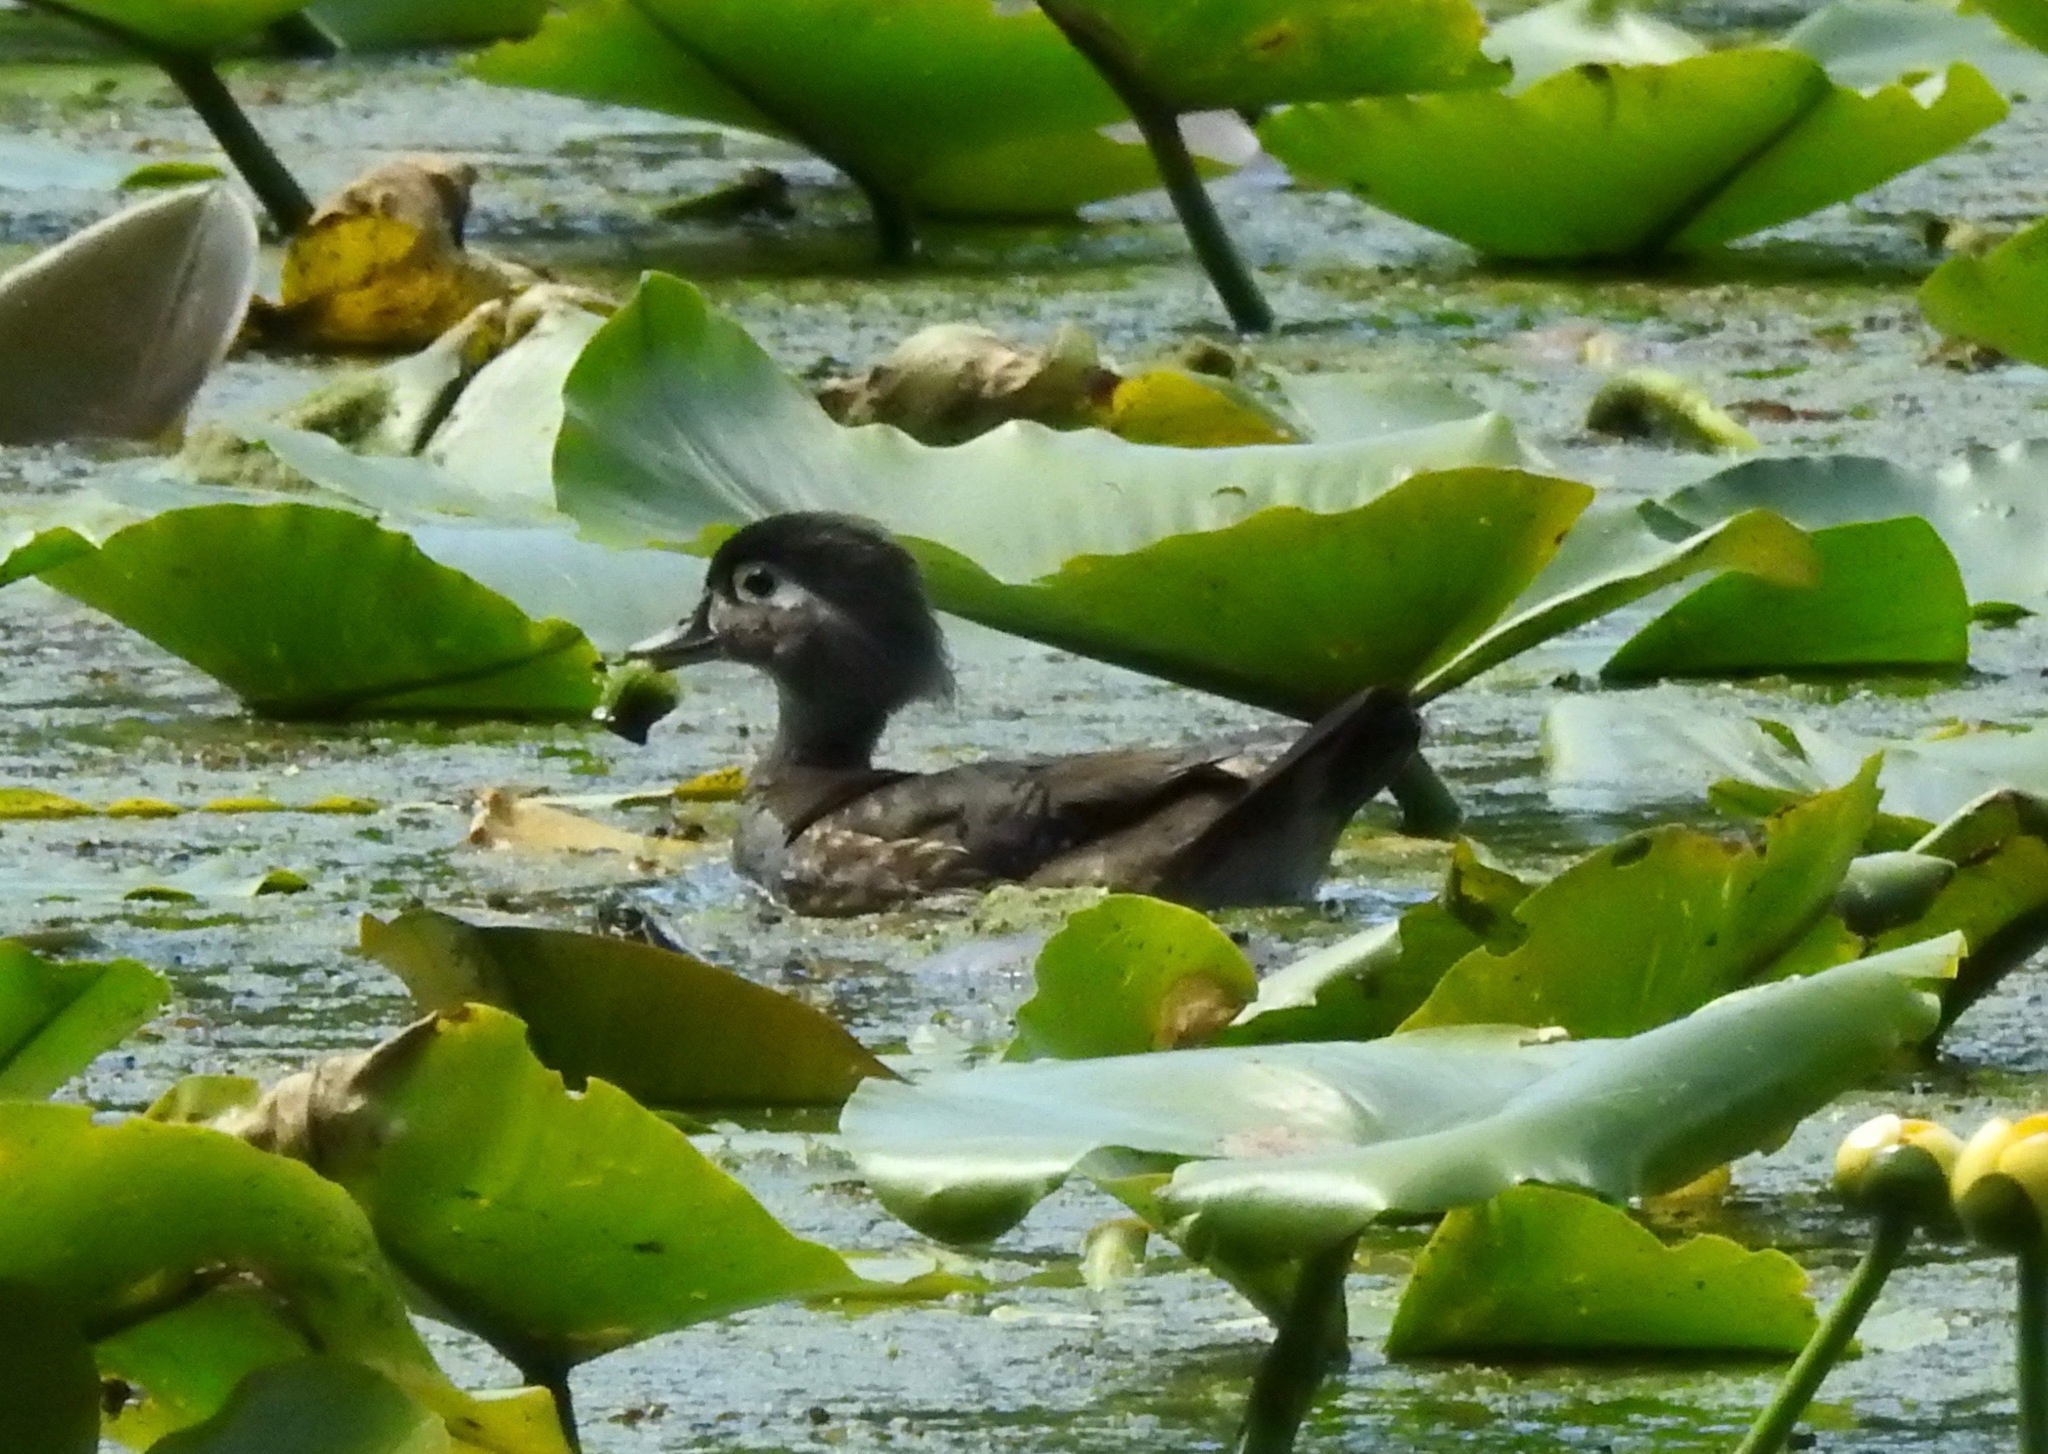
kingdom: Animalia
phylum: Chordata
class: Aves
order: Anseriformes
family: Anatidae
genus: Aix
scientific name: Aix sponsa
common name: Wood duck
